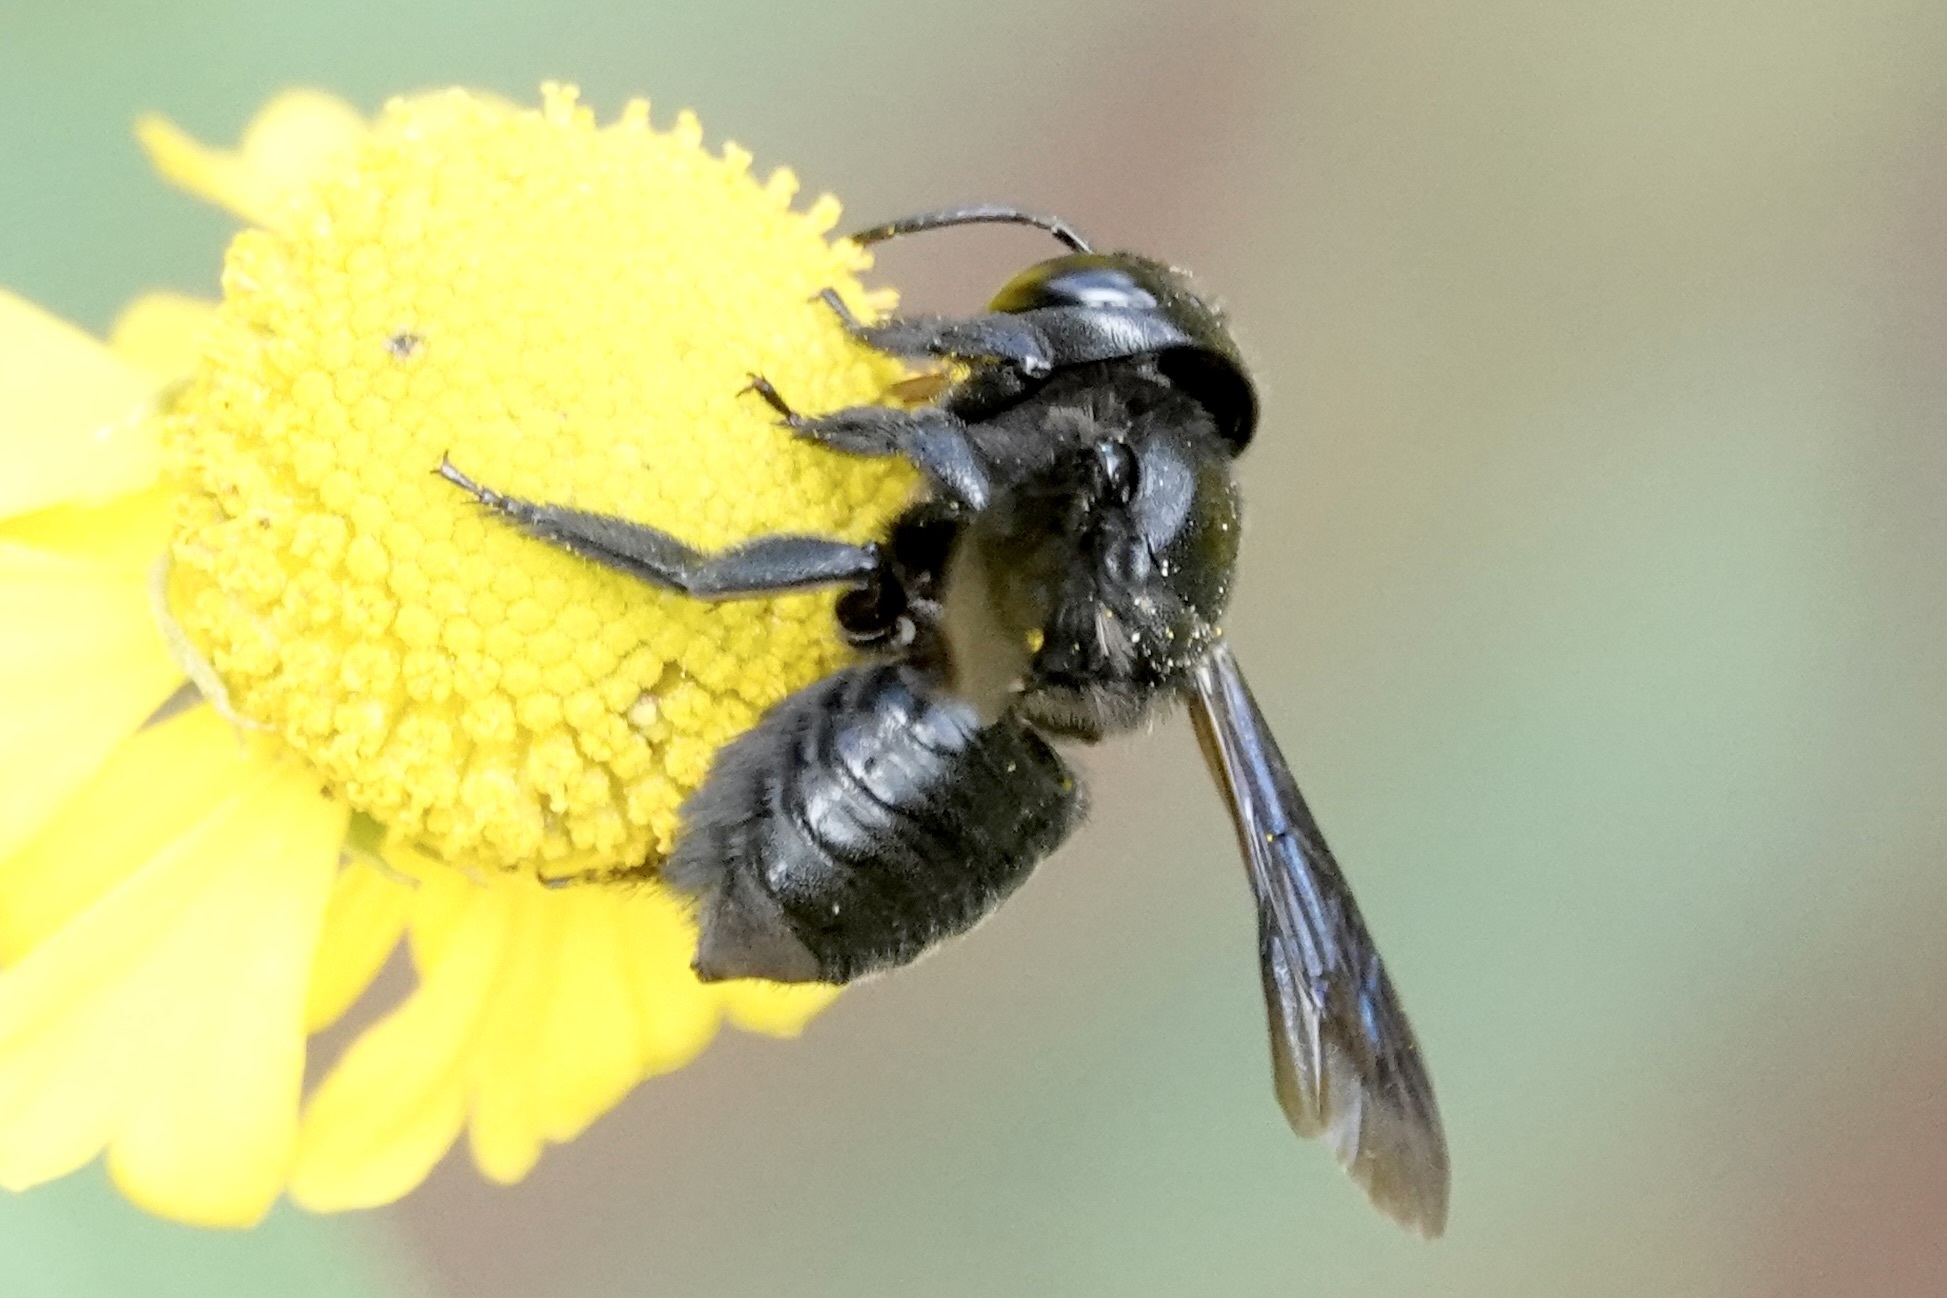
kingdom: Animalia
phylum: Arthropoda
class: Insecta
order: Hymenoptera
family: Megachilidae
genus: Megachile
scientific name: Megachile xylocopoides
